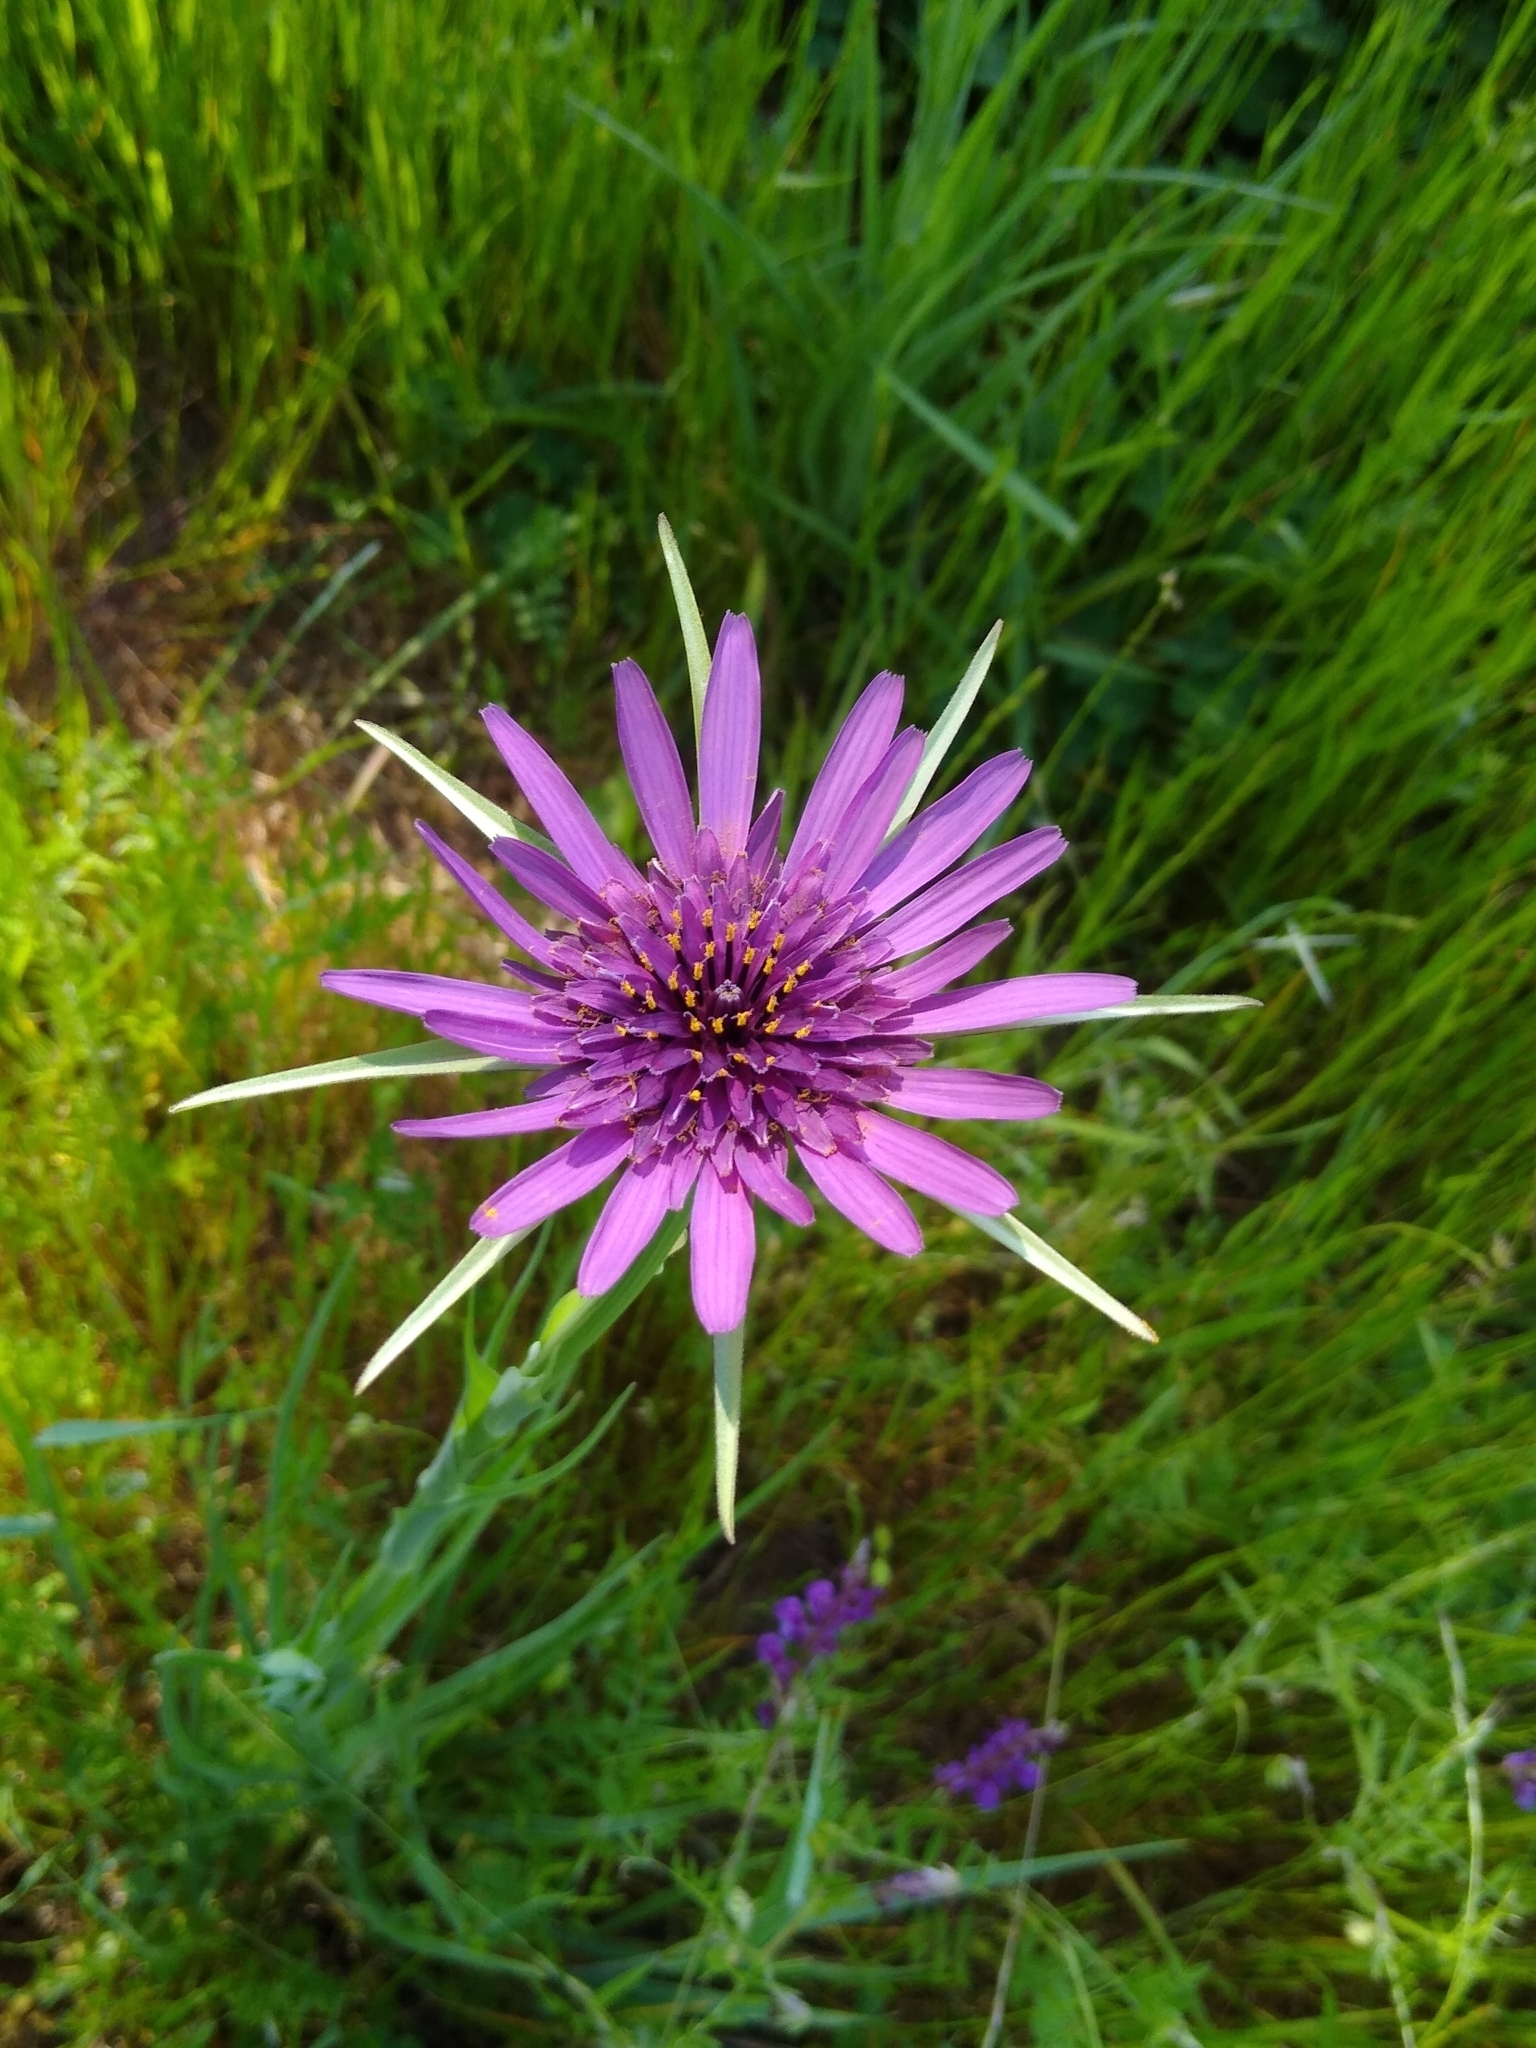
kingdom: Plantae
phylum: Tracheophyta
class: Magnoliopsida
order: Asterales
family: Asteraceae
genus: Tragopogon
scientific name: Tragopogon porrifolius
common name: Salsify
